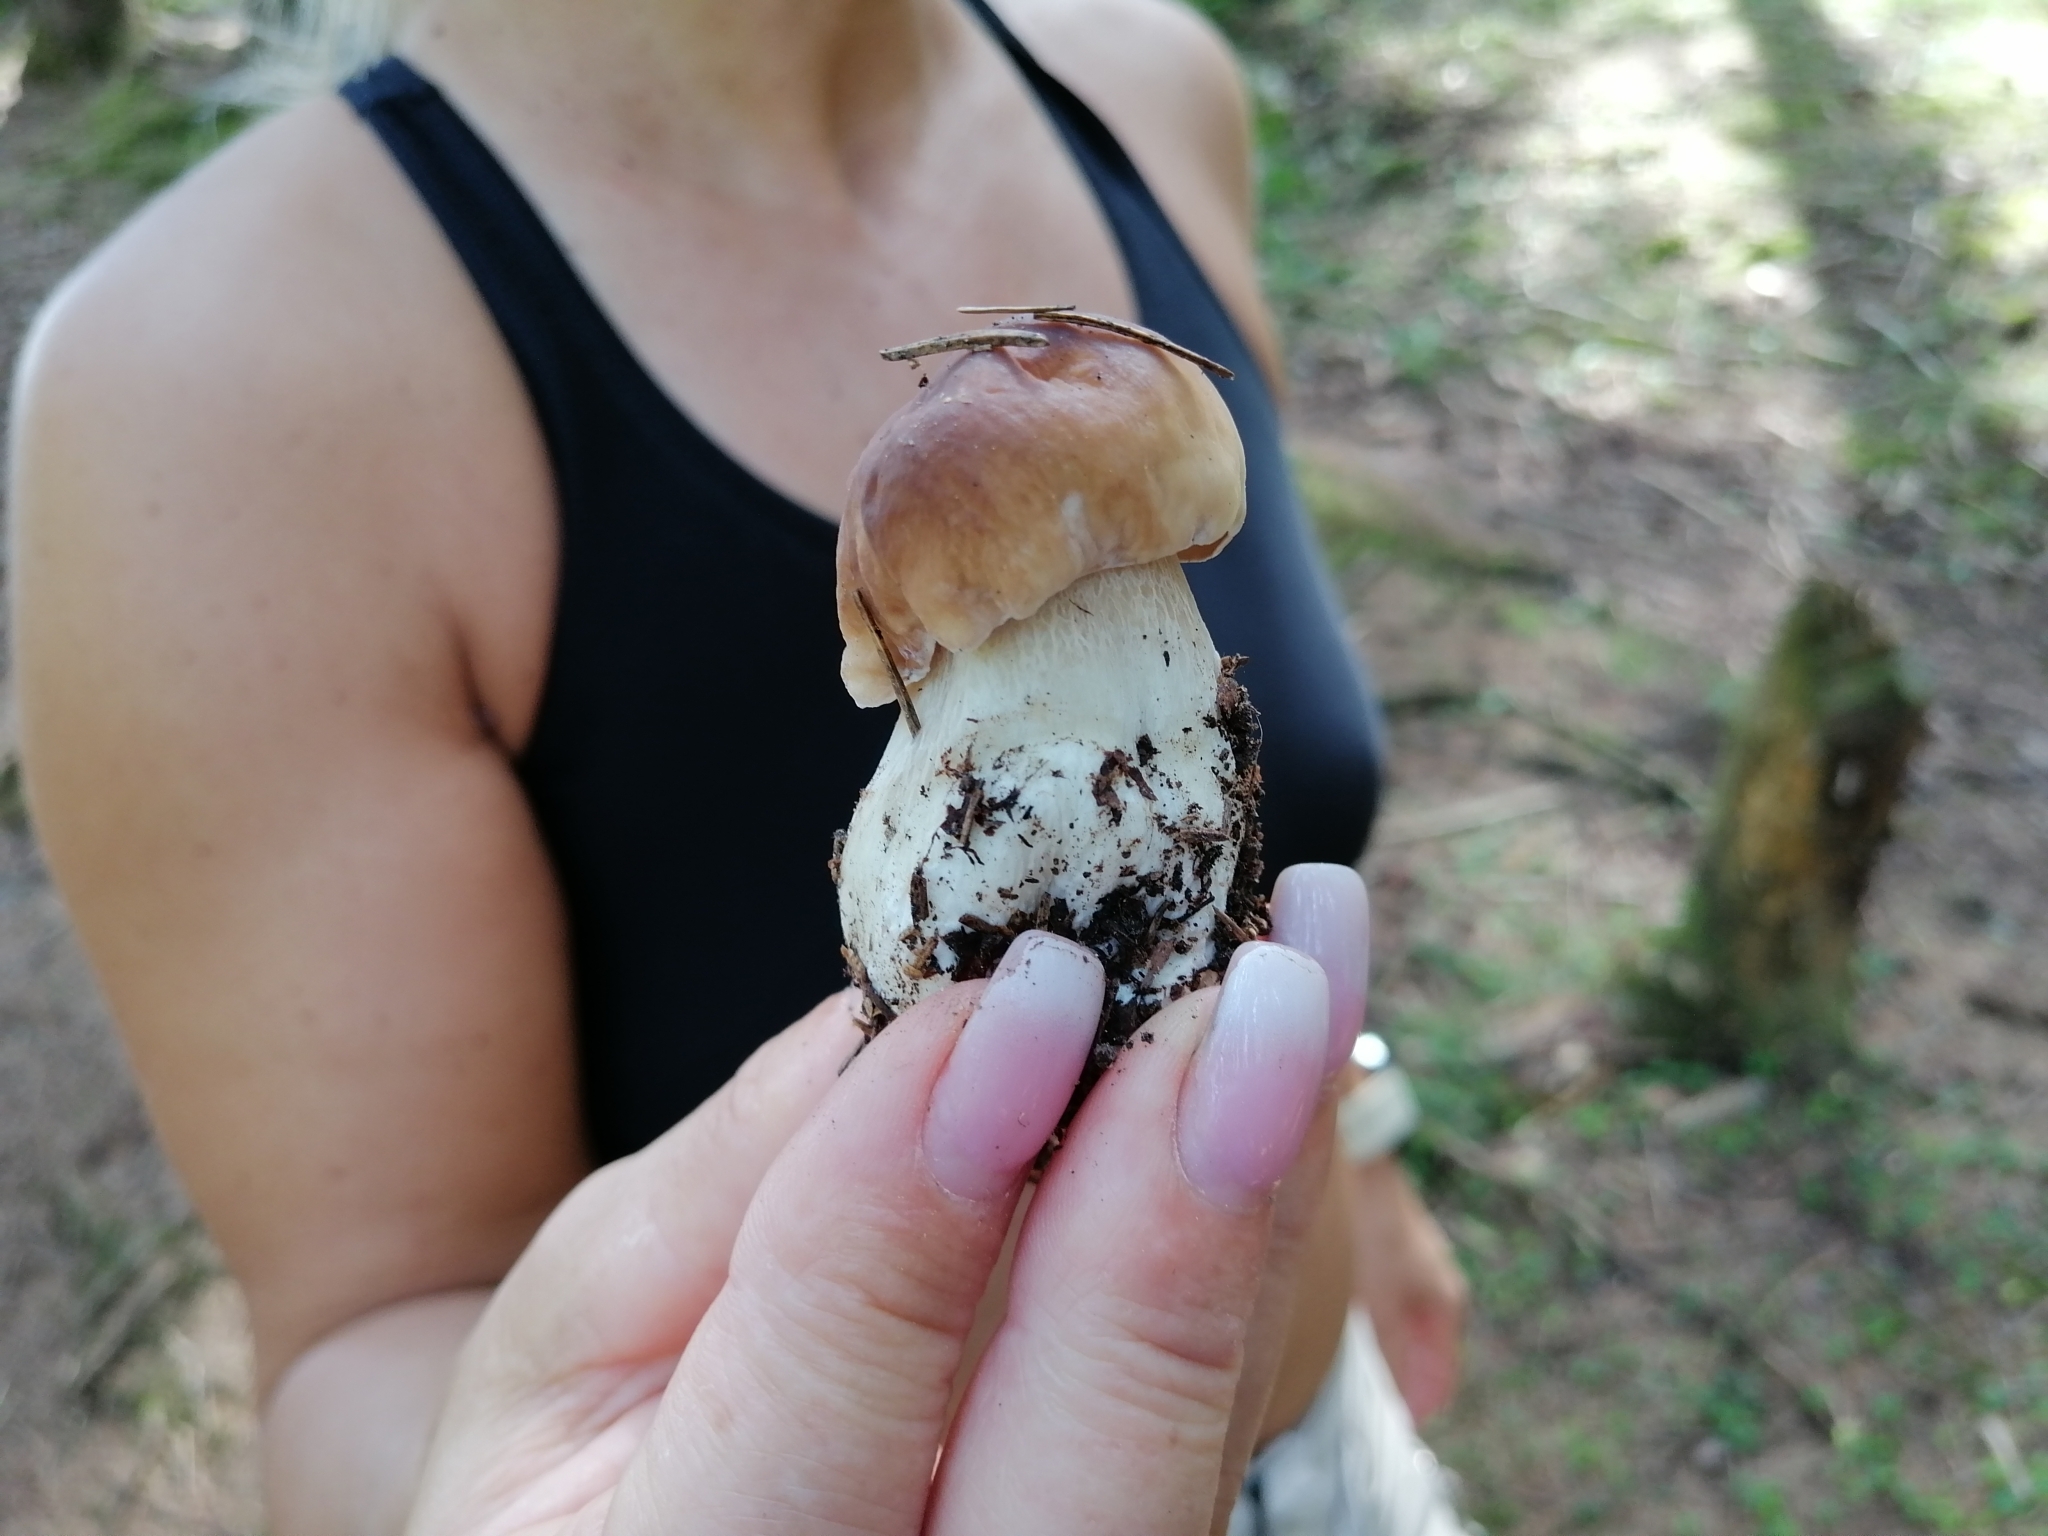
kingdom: Fungi
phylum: Basidiomycota
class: Agaricomycetes
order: Boletales
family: Boletaceae
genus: Boletus
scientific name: Boletus edulis
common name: Cep
